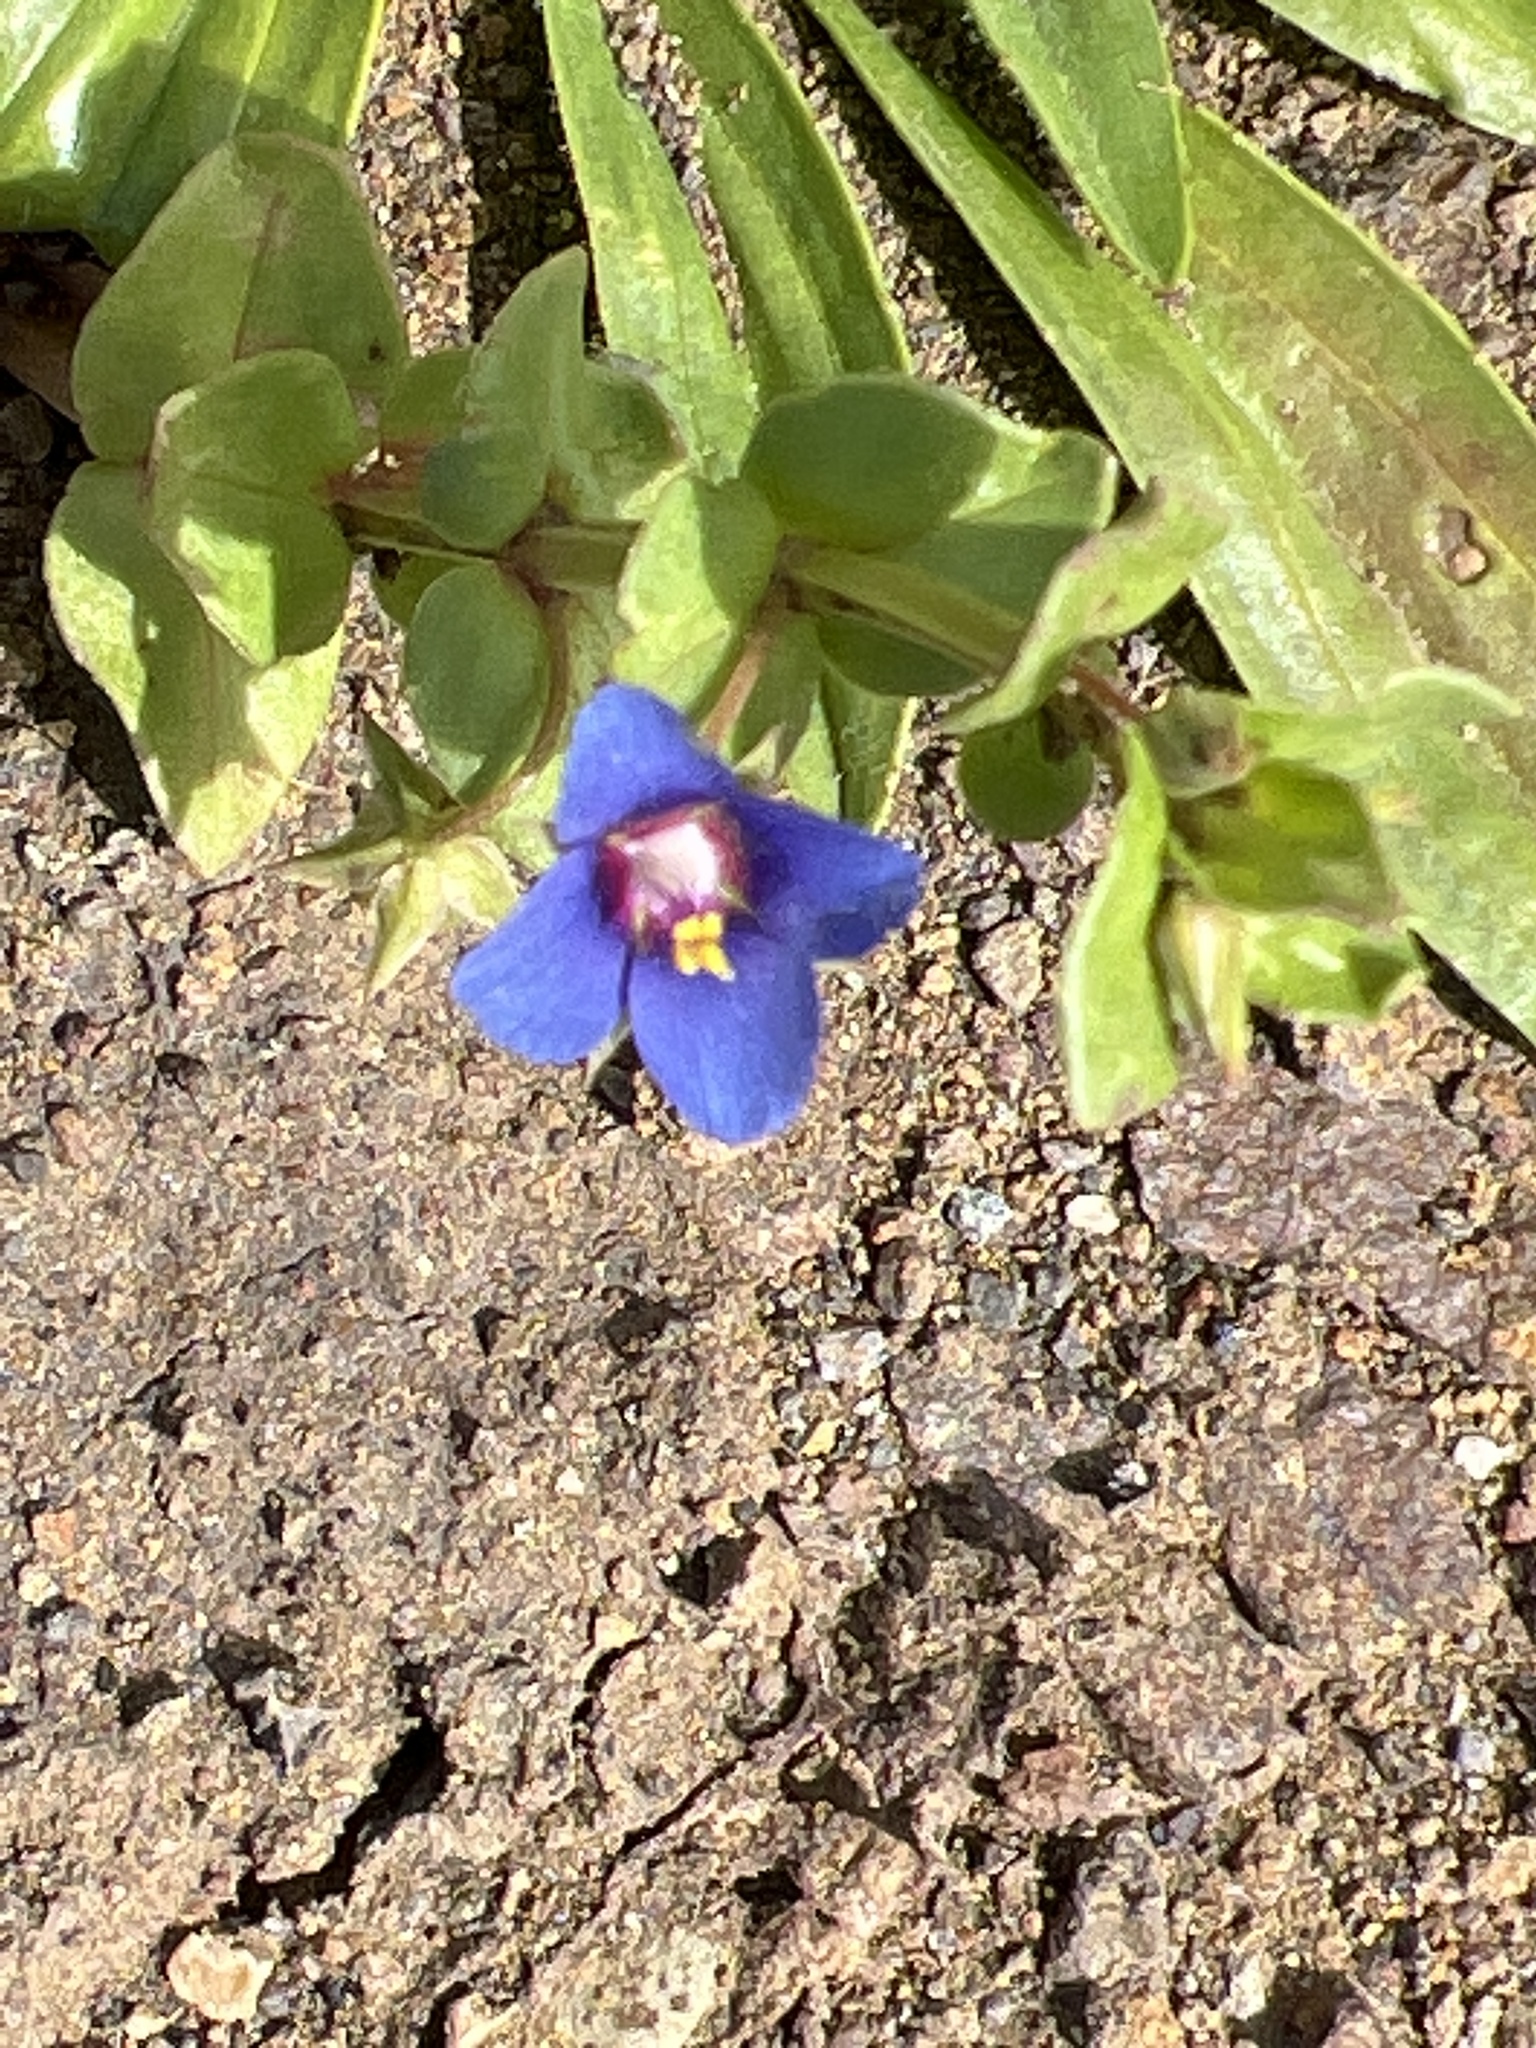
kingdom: Plantae
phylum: Tracheophyta
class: Magnoliopsida
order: Ericales
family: Primulaceae
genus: Lysimachia
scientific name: Lysimachia loeflingii
